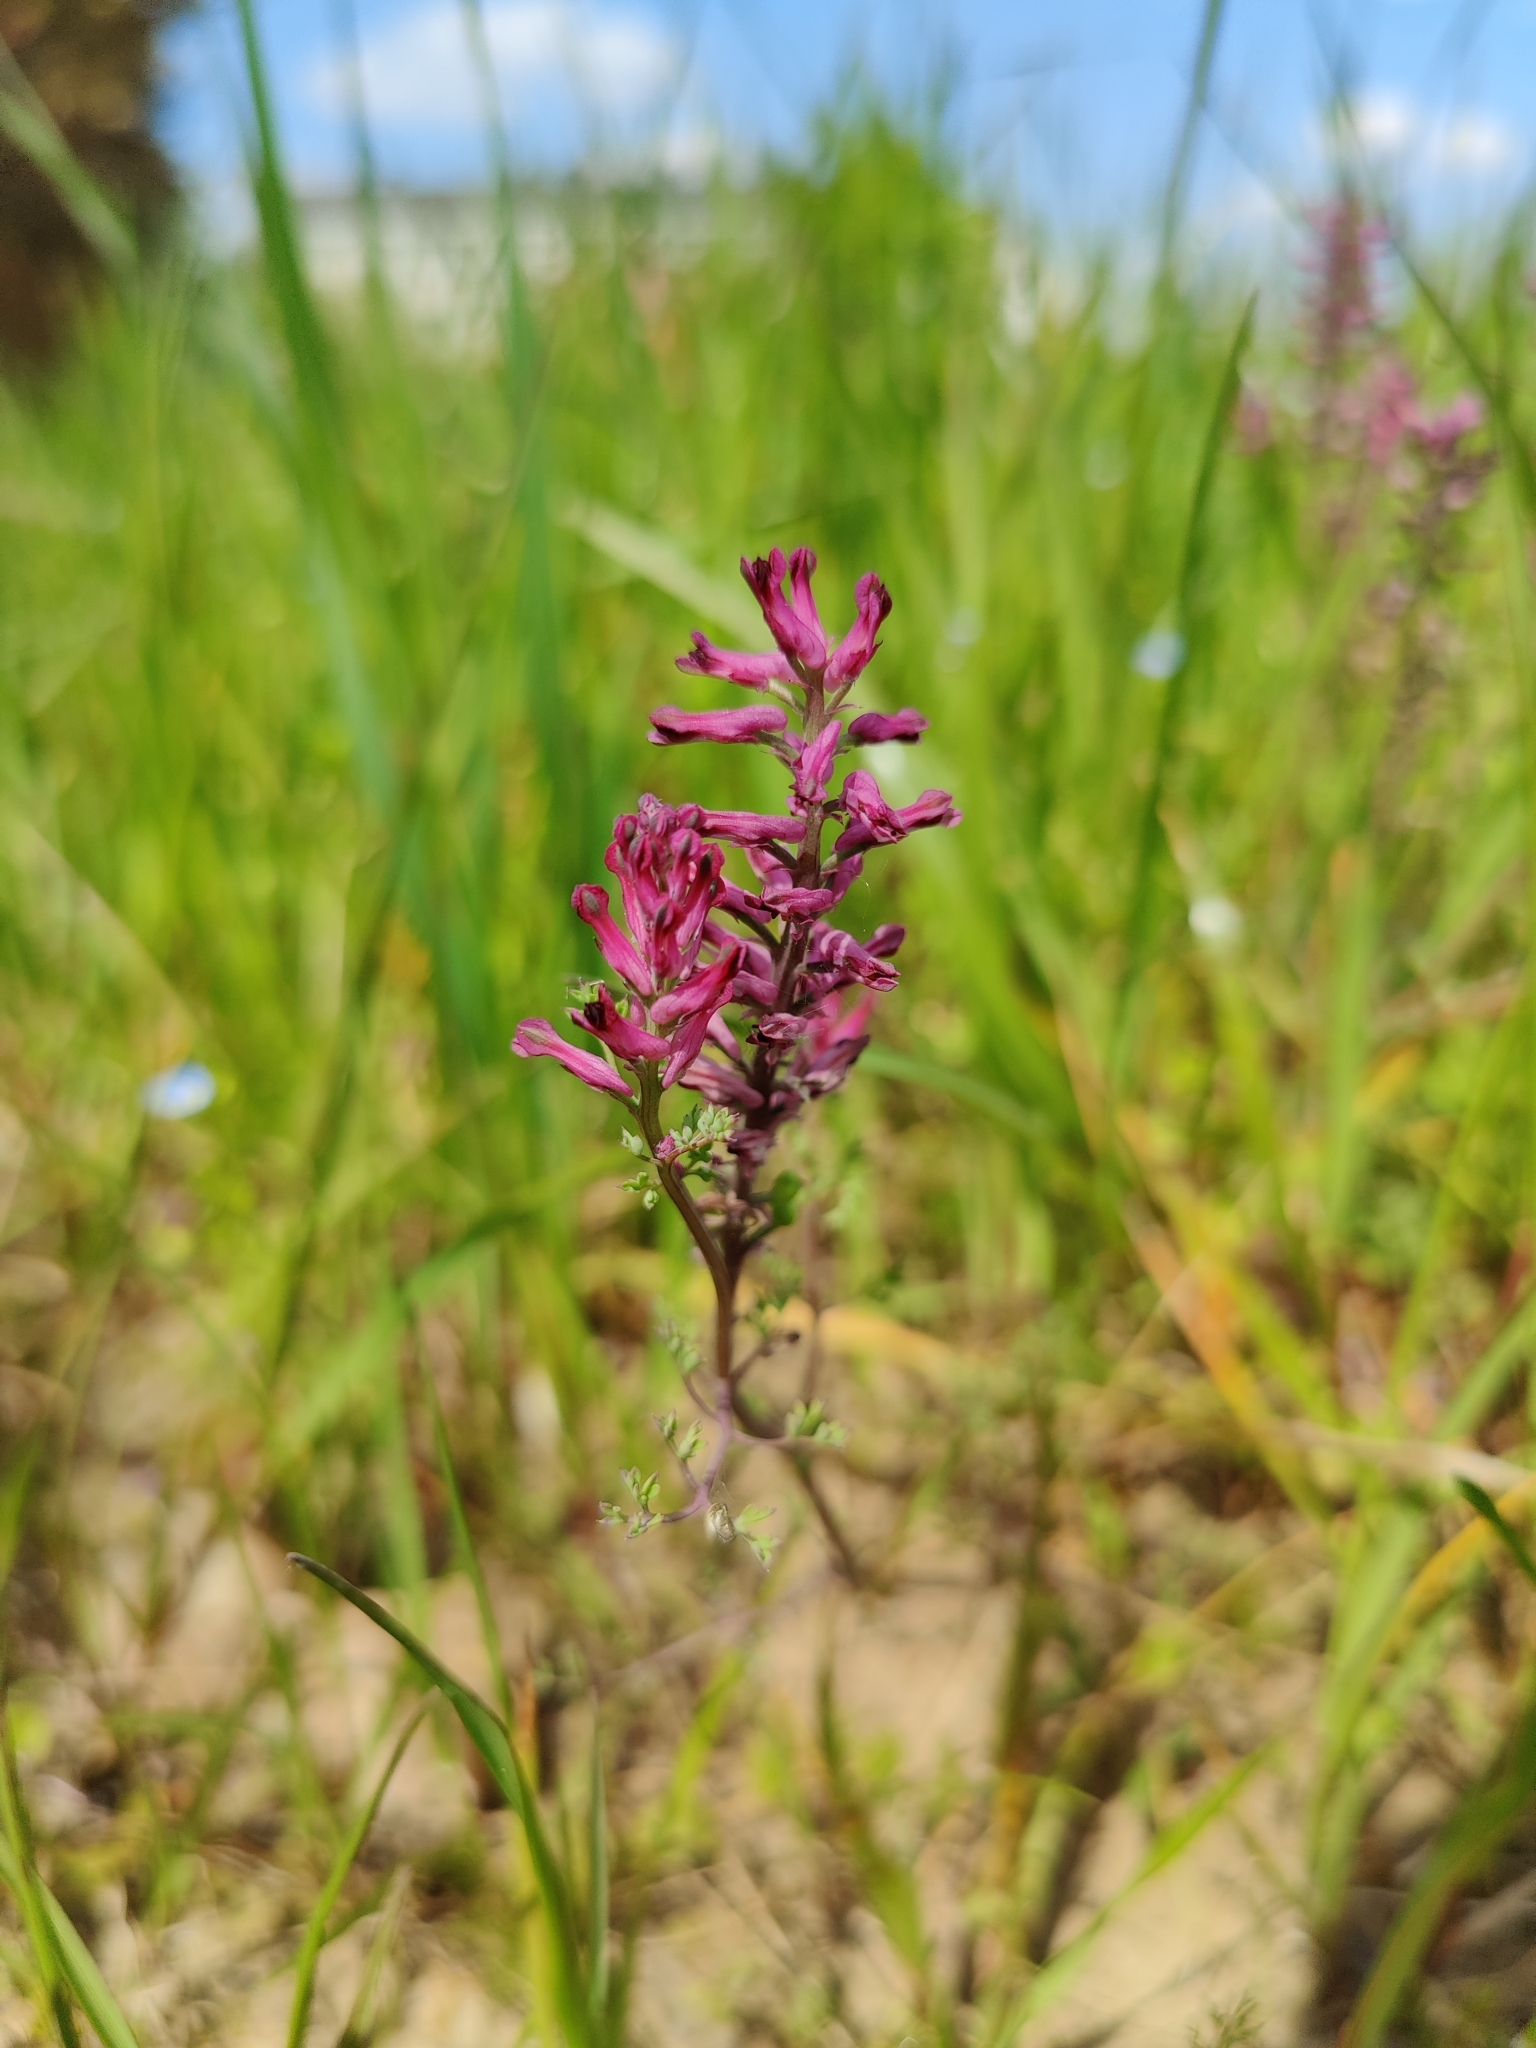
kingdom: Plantae
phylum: Tracheophyta
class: Magnoliopsida
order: Ranunculales
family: Papaveraceae
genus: Fumaria
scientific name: Fumaria officinalis
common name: Common fumitory
